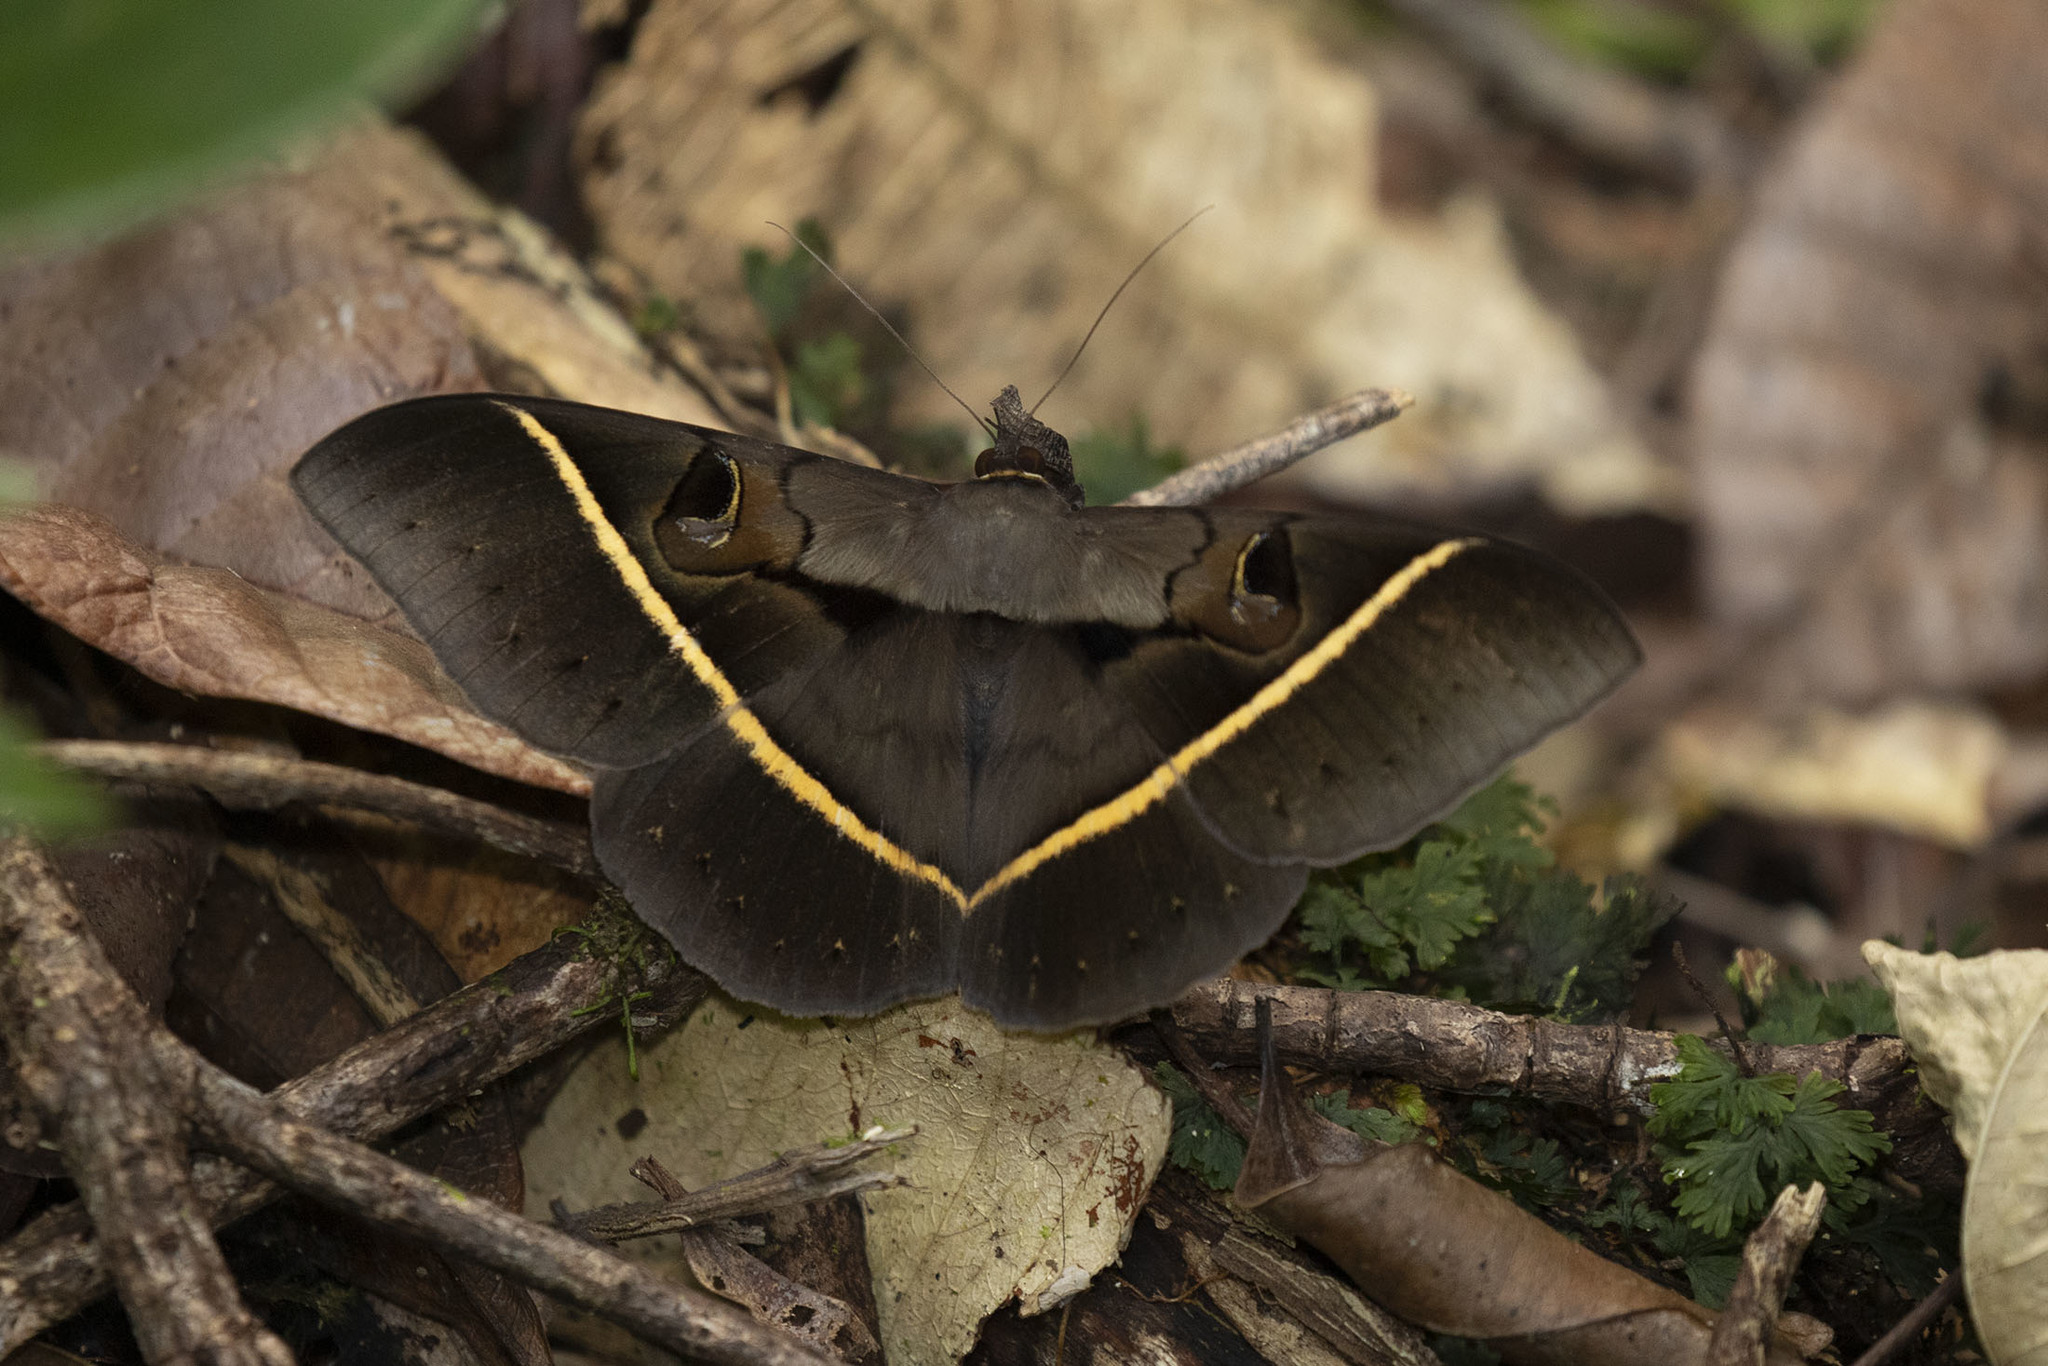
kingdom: Animalia
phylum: Arthropoda
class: Insecta
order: Lepidoptera
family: Erebidae
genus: Cyligramma
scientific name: Cyligramma joa
